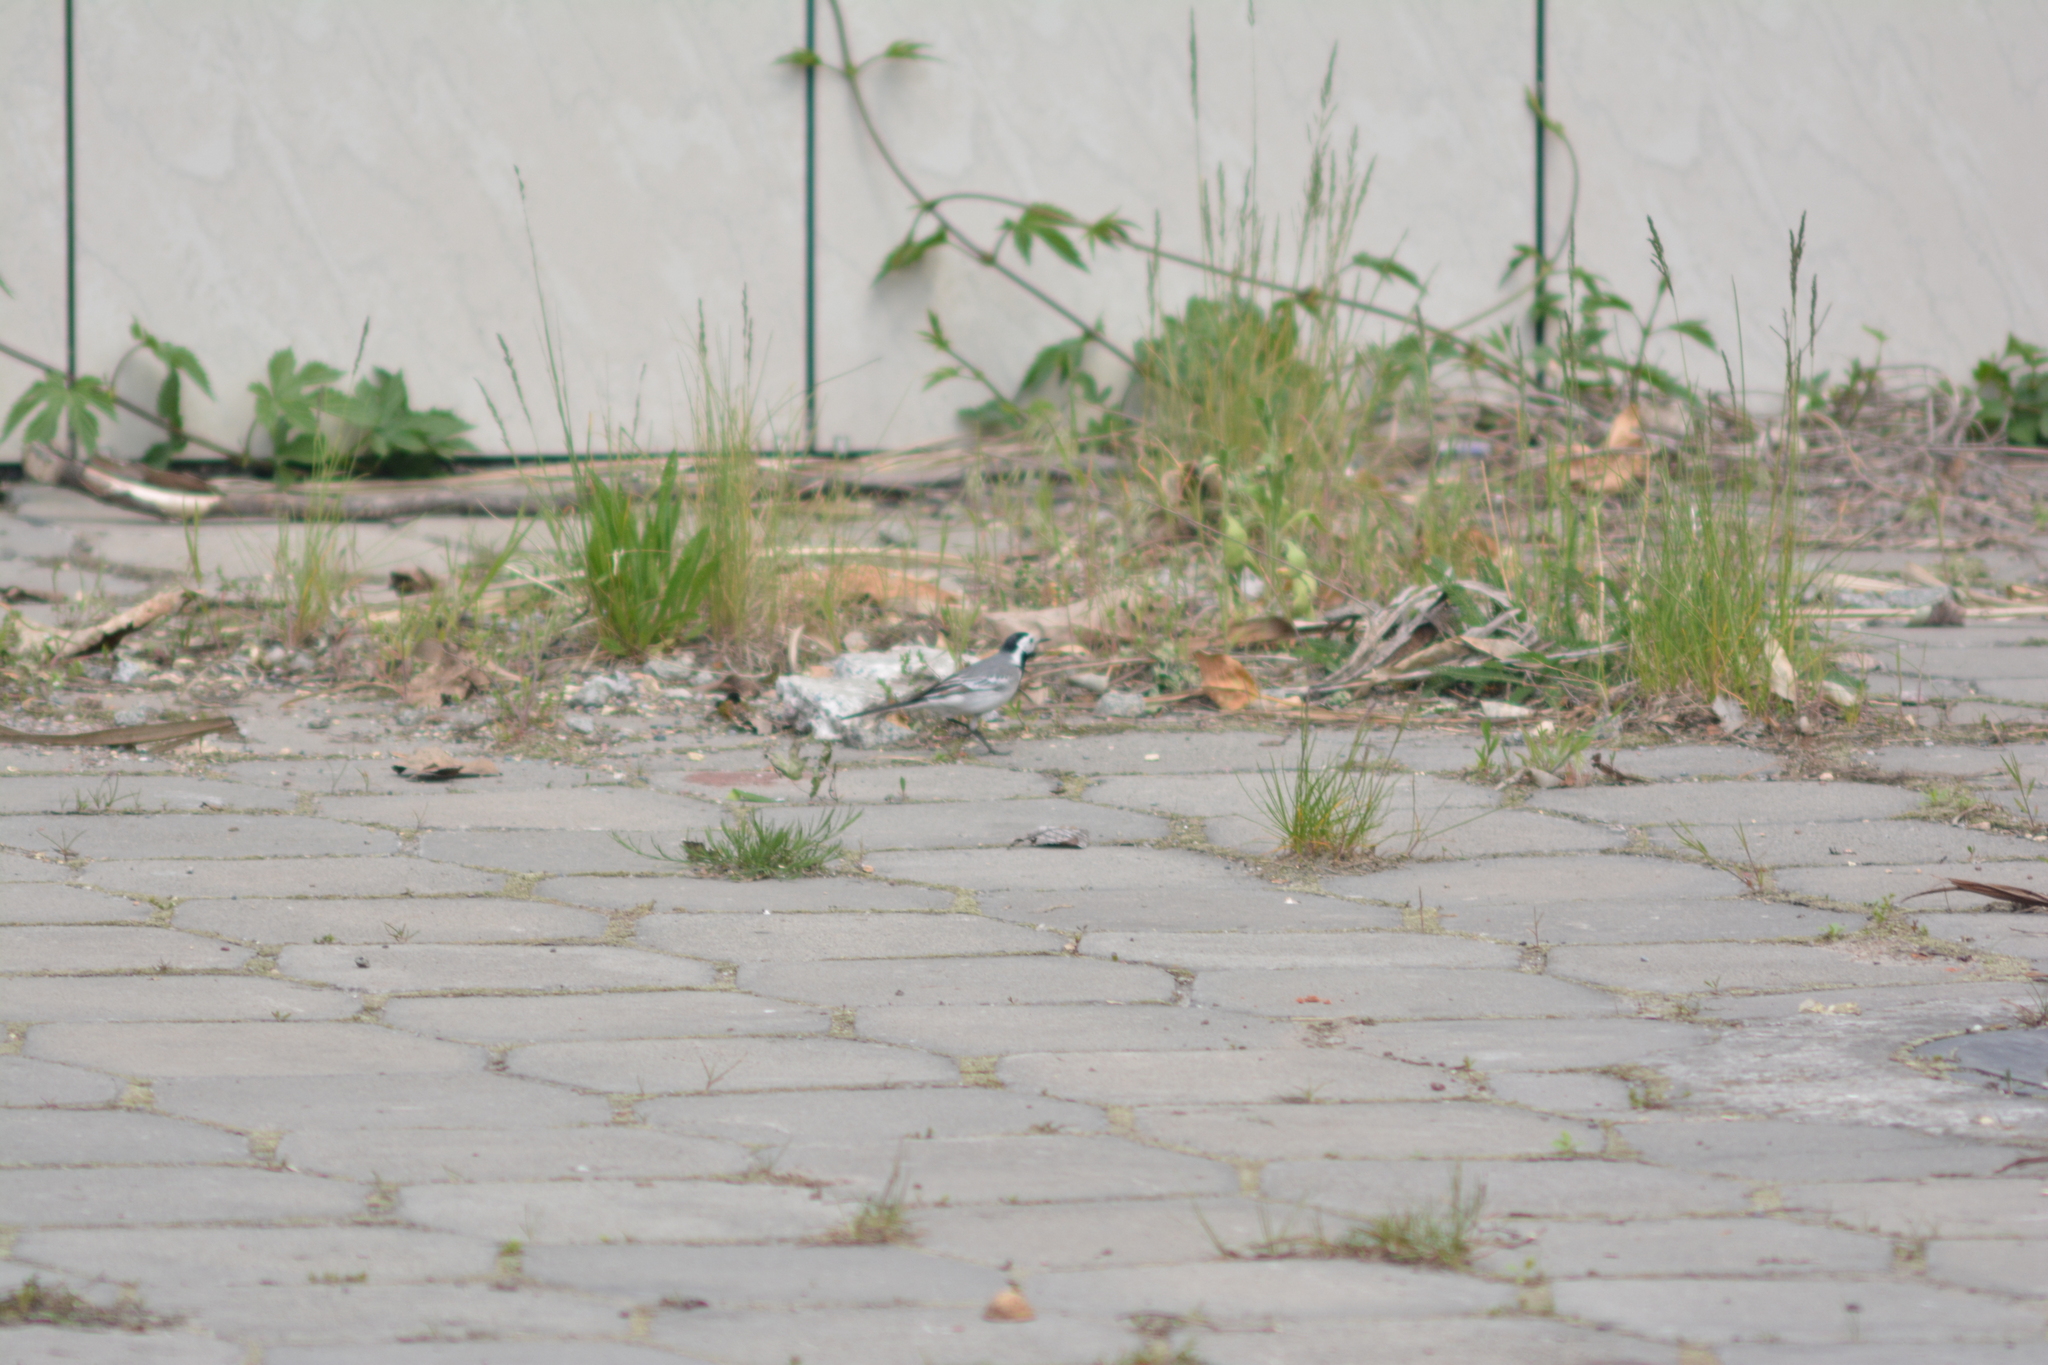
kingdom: Animalia
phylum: Chordata
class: Aves
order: Passeriformes
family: Motacillidae
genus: Motacilla
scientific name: Motacilla alba
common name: White wagtail
